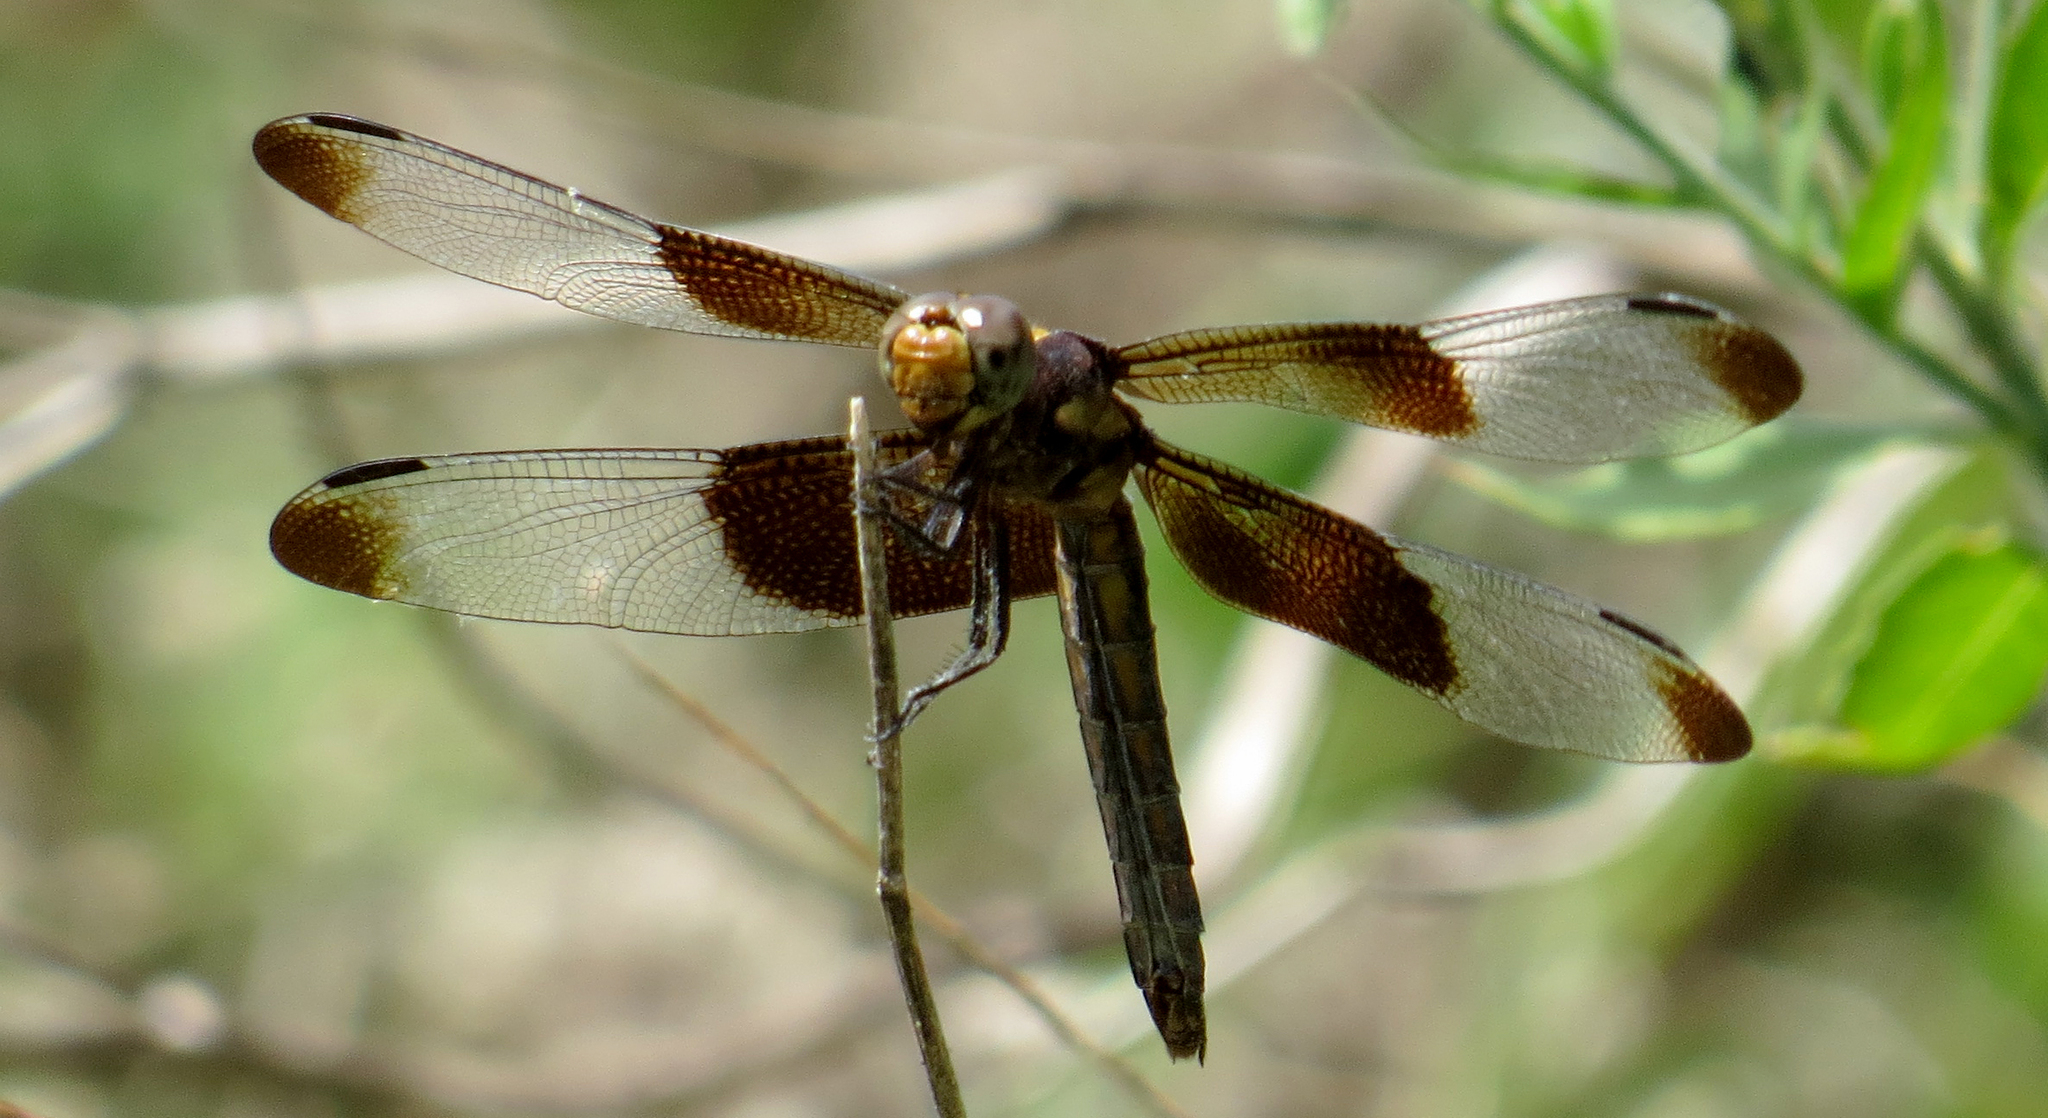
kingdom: Animalia
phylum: Arthropoda
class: Insecta
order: Odonata
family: Libellulidae
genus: Libellula
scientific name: Libellula luctuosa
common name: Widow skimmer
